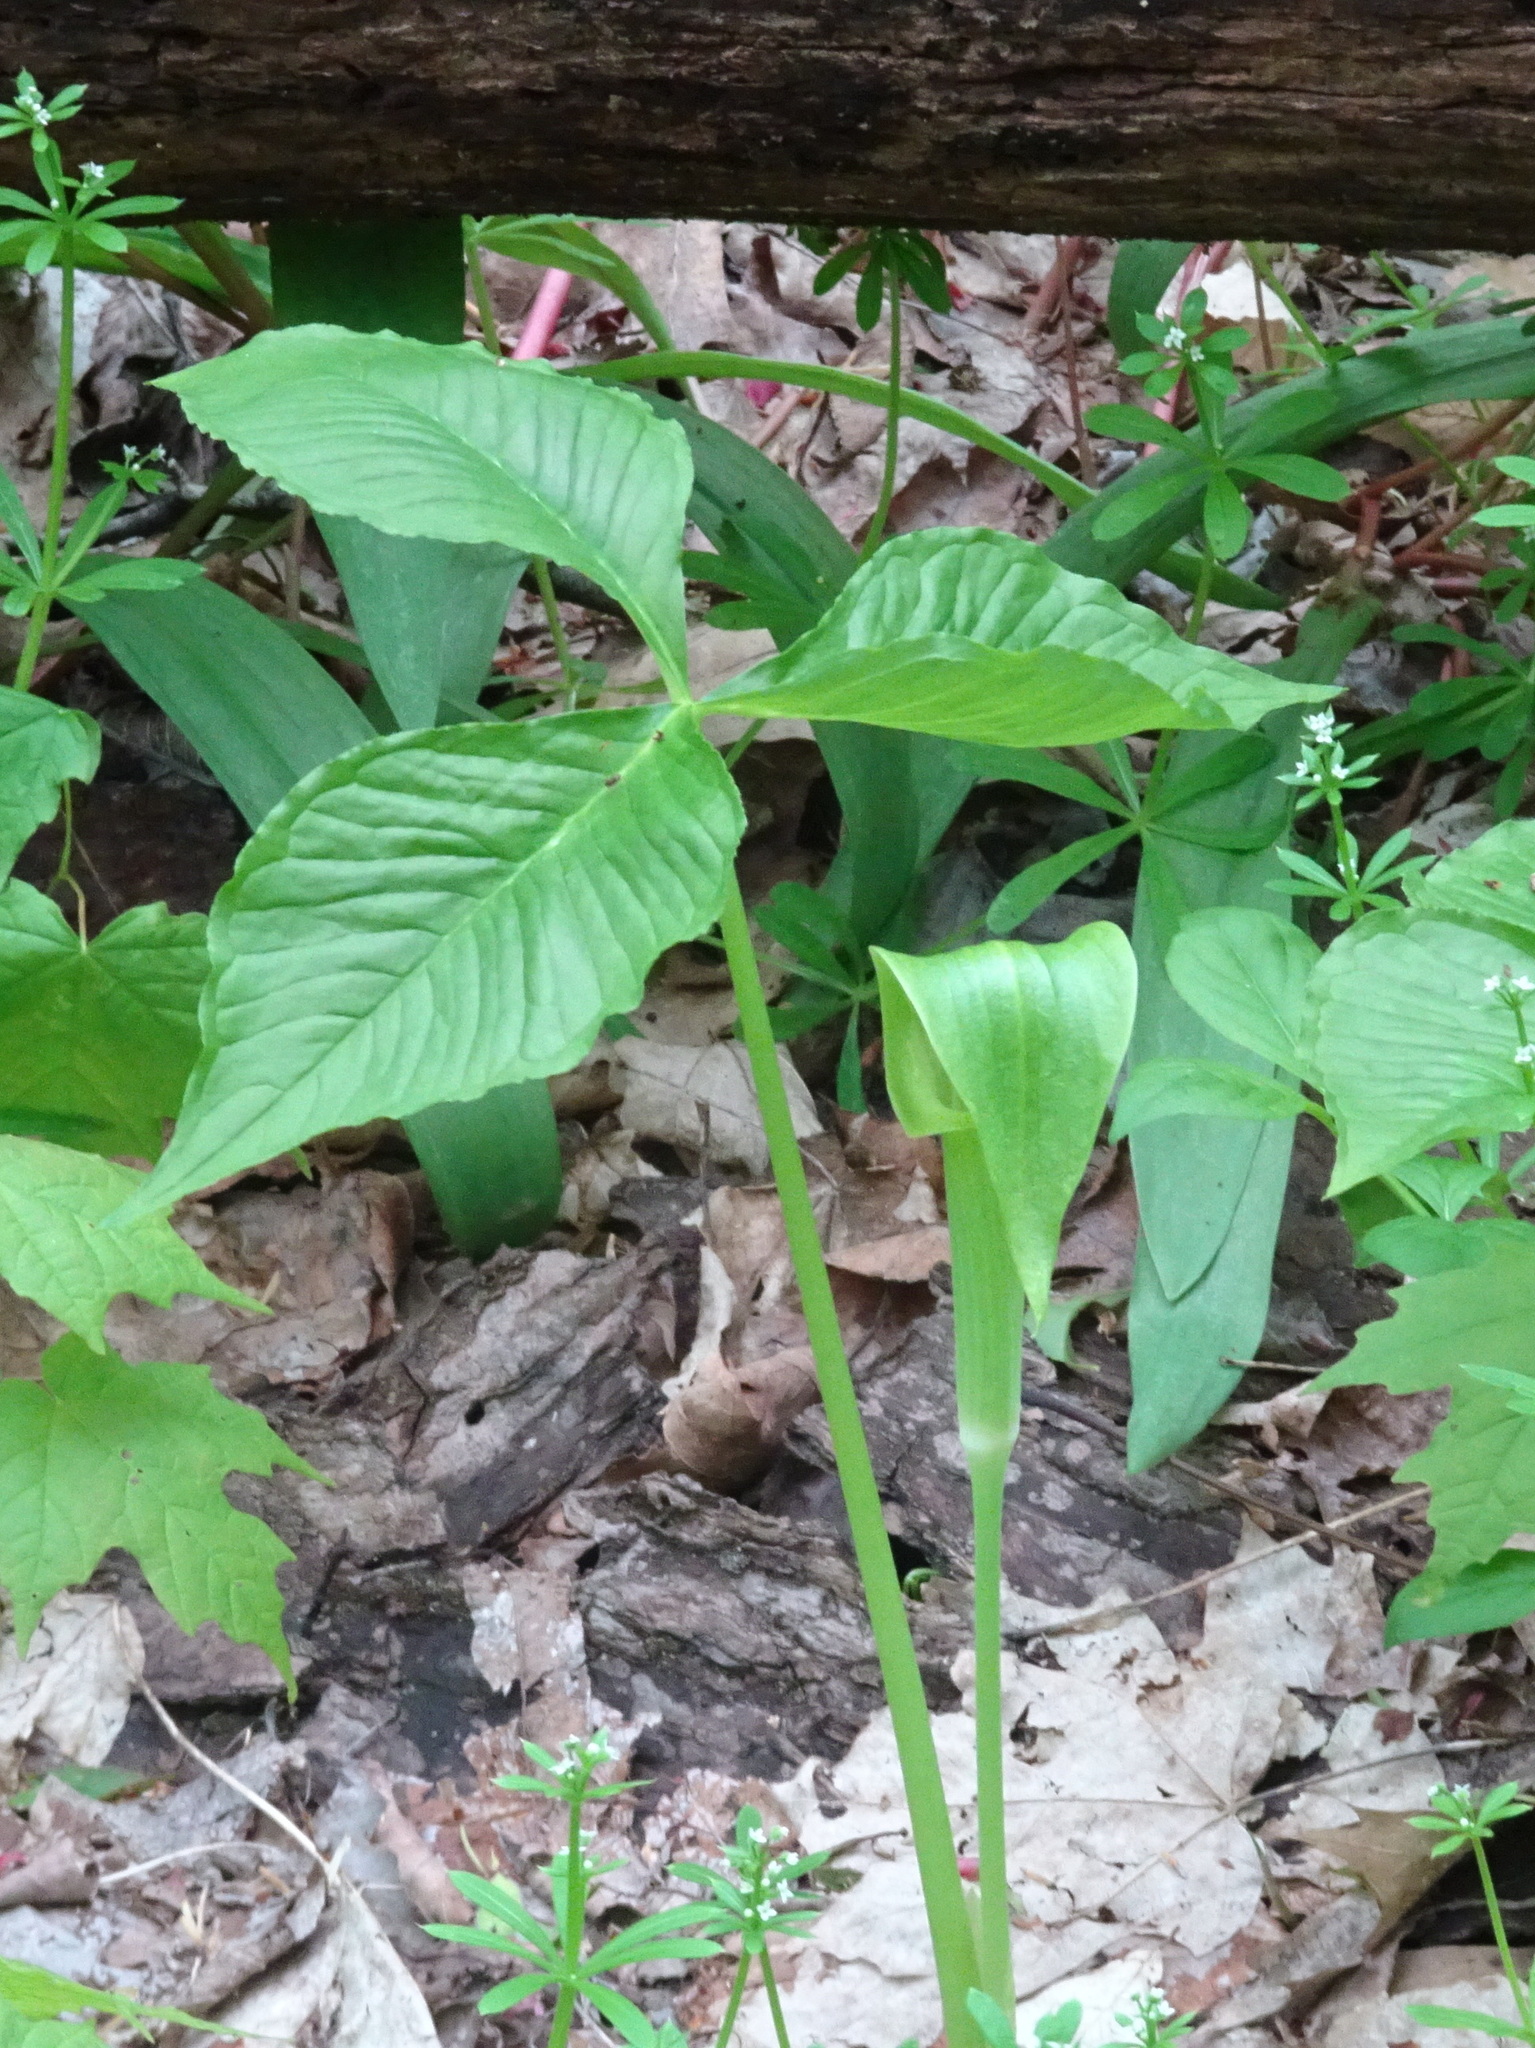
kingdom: Plantae
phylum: Tracheophyta
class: Liliopsida
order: Alismatales
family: Araceae
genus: Arisaema
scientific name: Arisaema triphyllum
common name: Jack-in-the-pulpit
